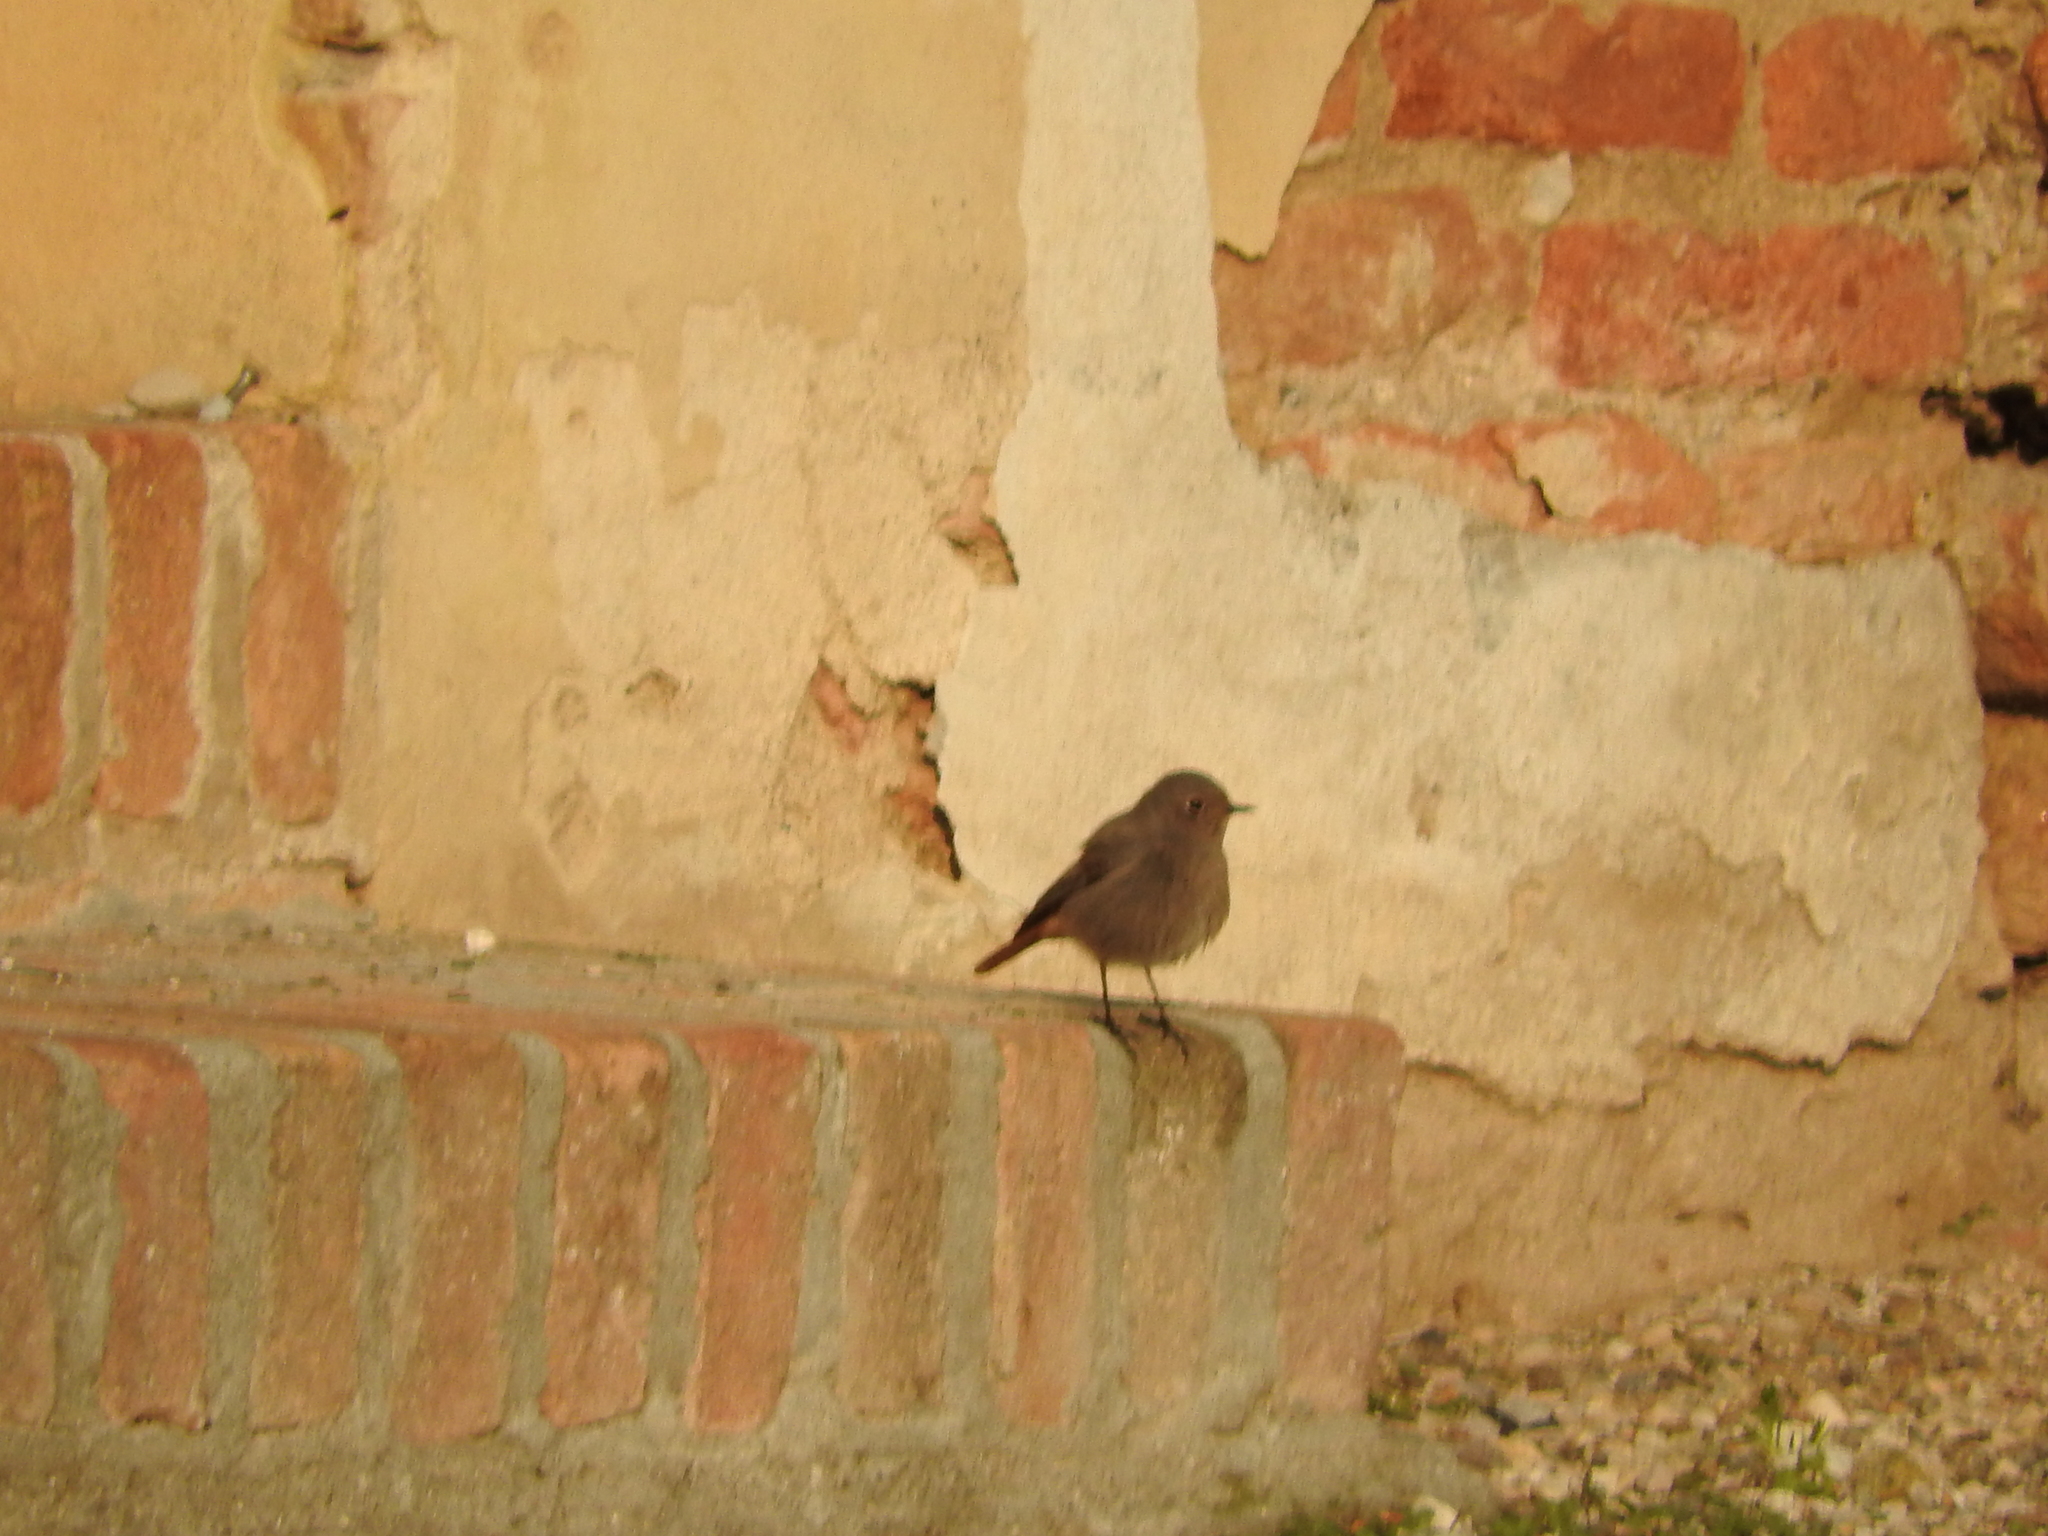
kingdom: Animalia
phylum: Chordata
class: Aves
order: Passeriformes
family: Muscicapidae
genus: Phoenicurus
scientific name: Phoenicurus ochruros
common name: Black redstart
